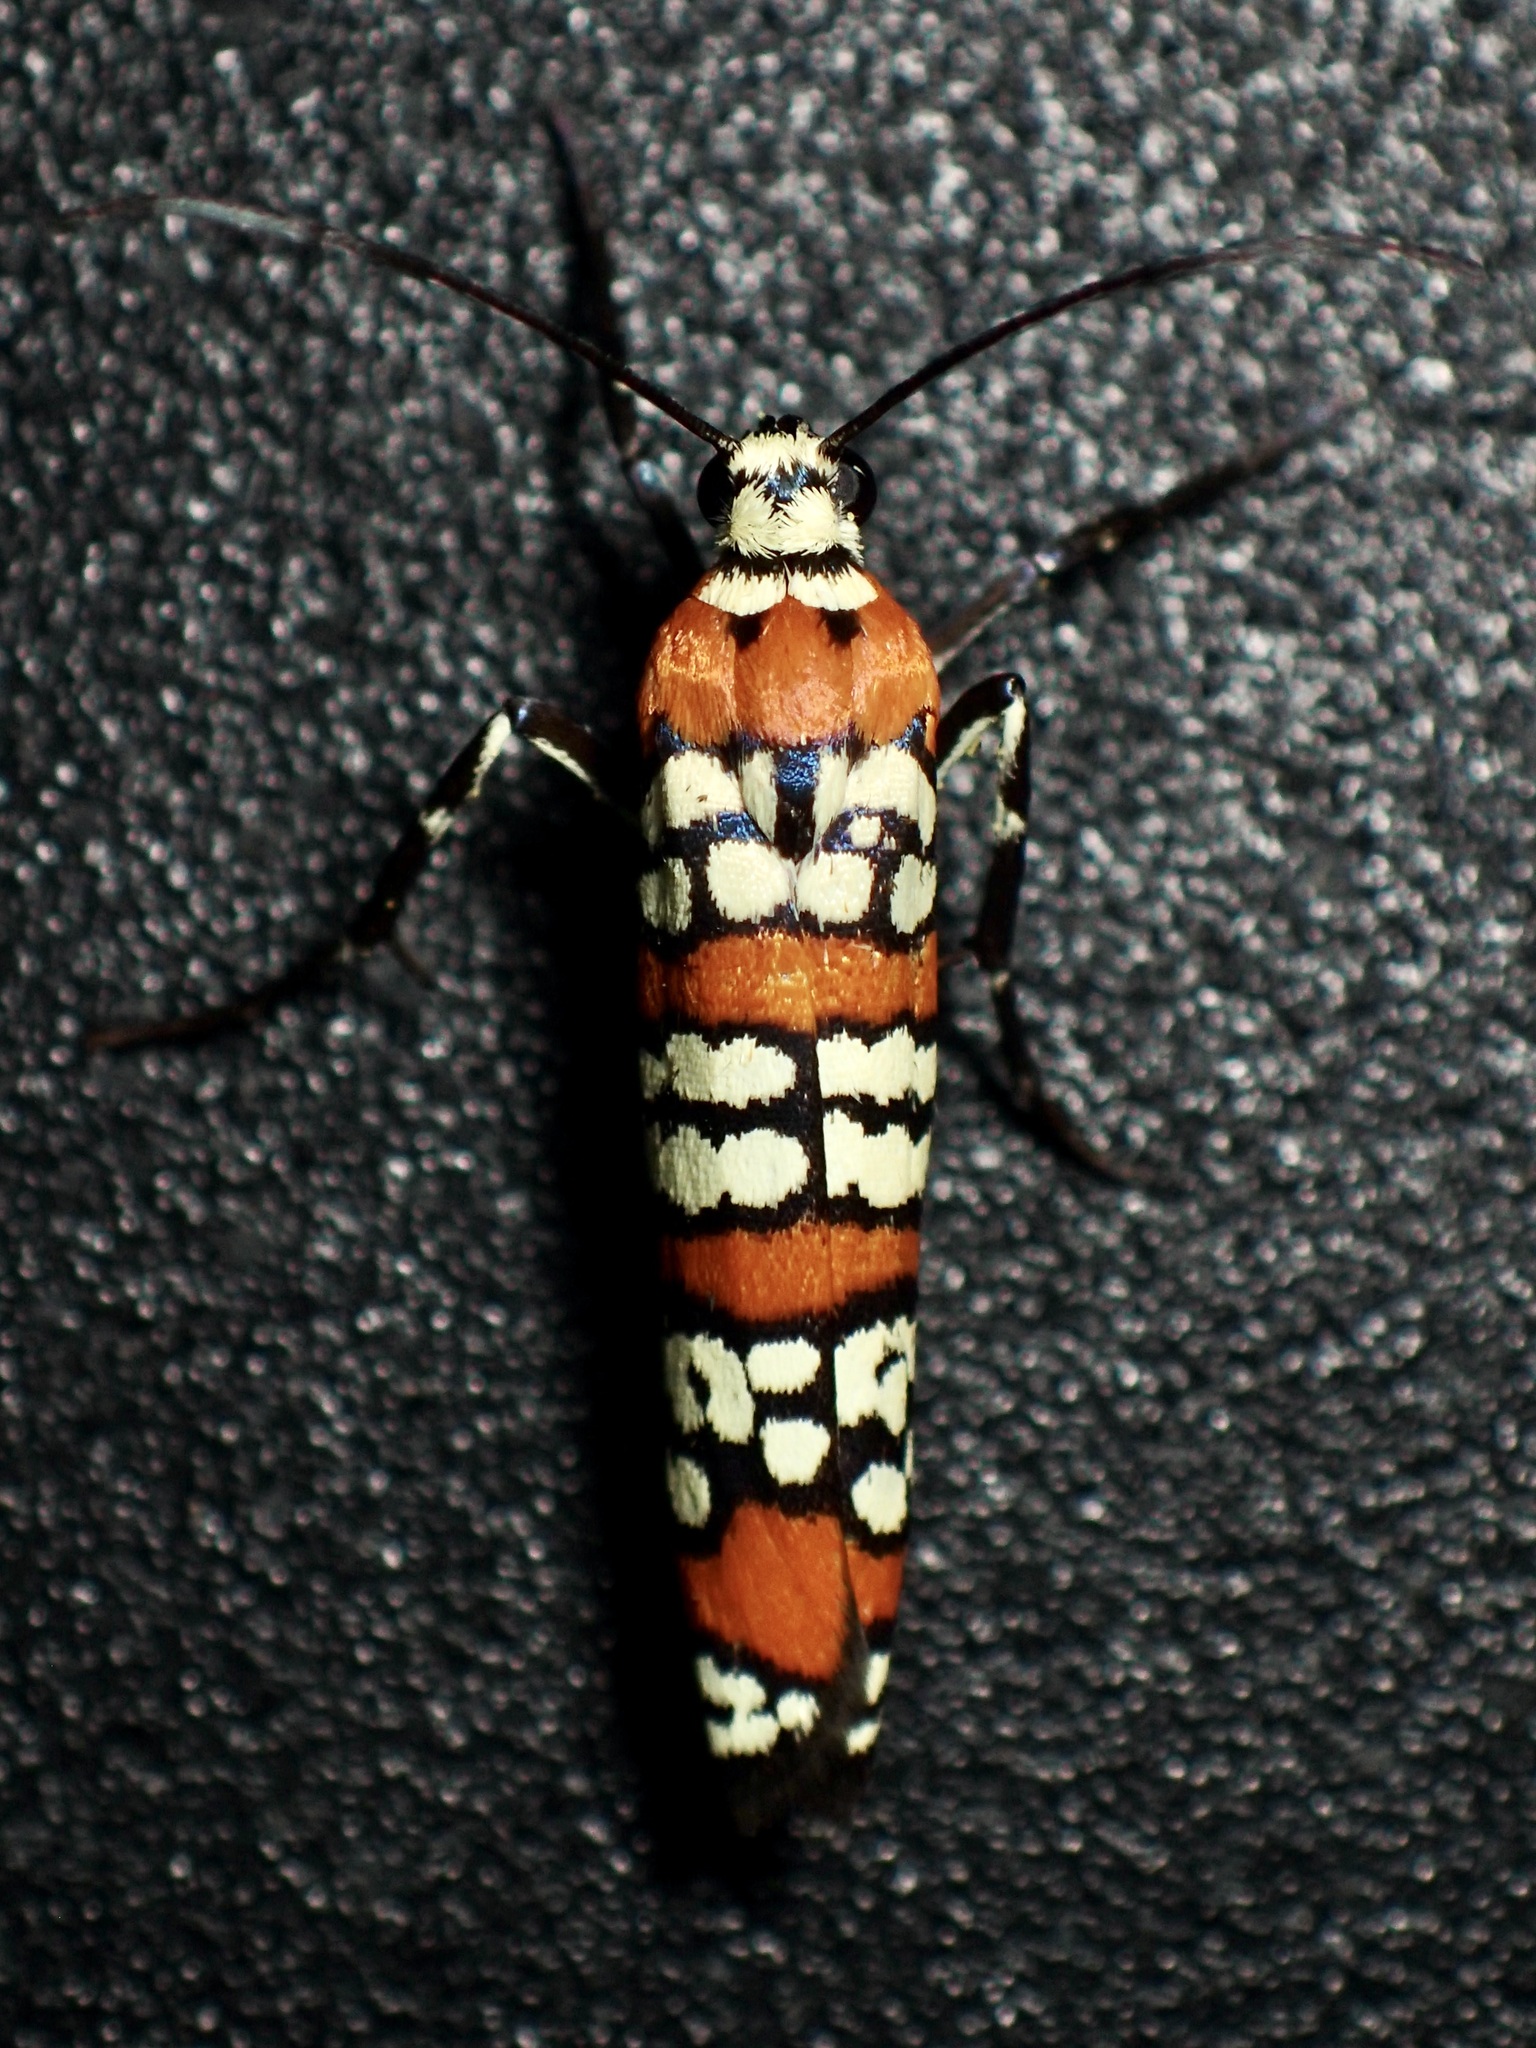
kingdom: Animalia
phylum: Arthropoda
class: Insecta
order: Lepidoptera
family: Attevidae
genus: Atteva
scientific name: Atteva punctella
